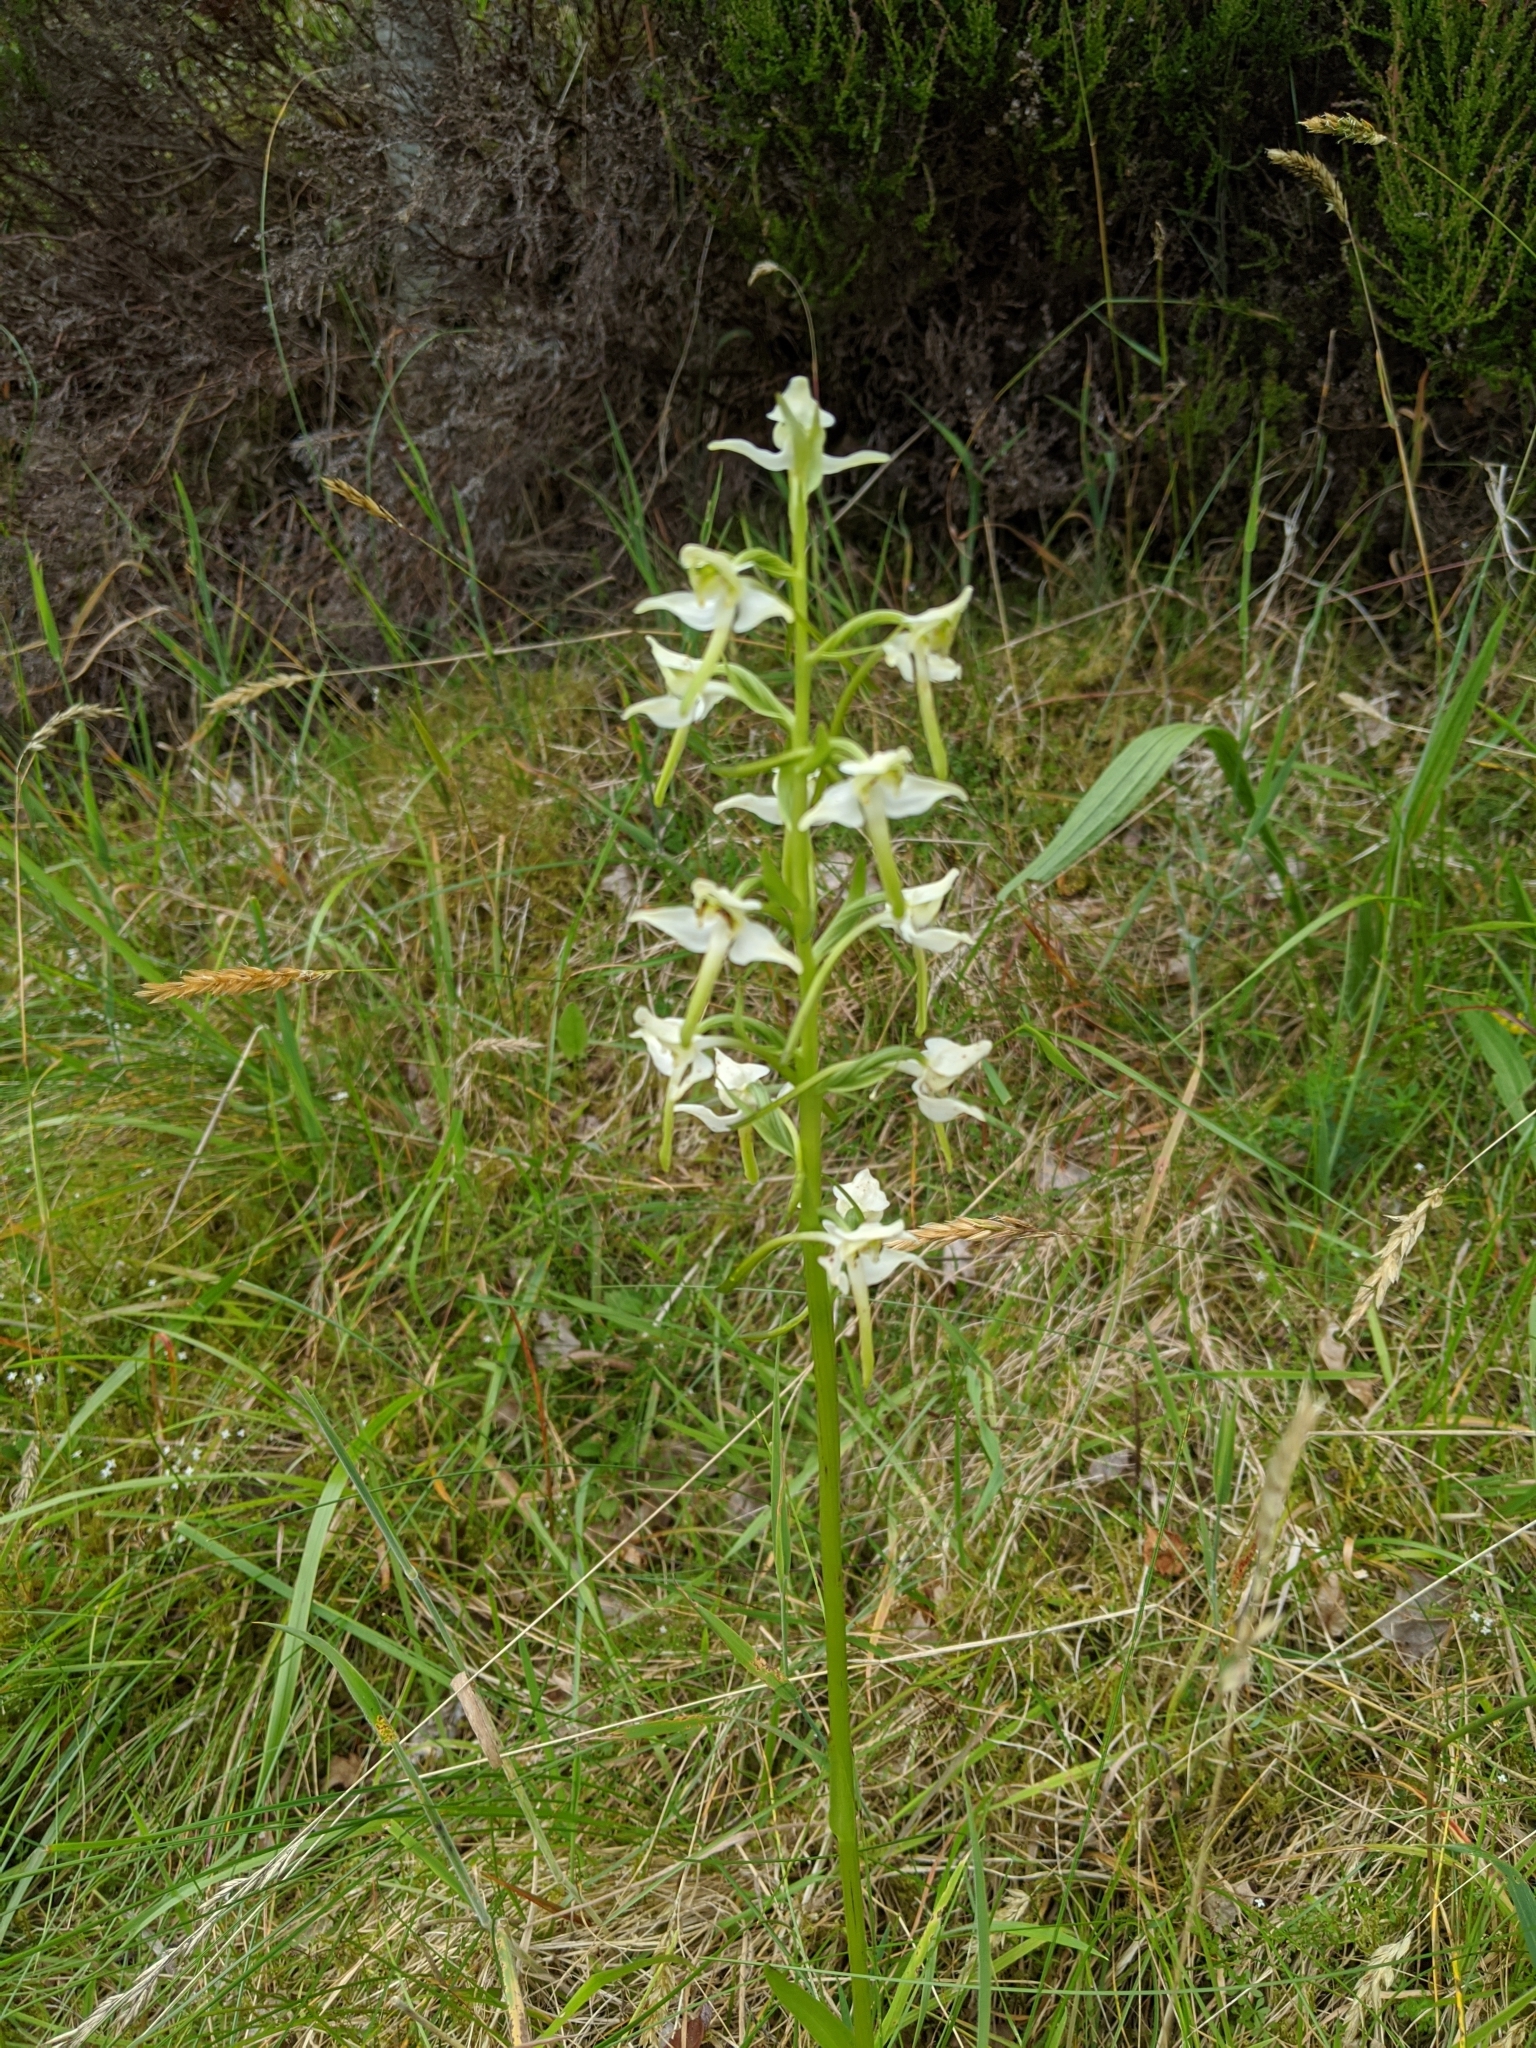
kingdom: Plantae
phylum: Tracheophyta
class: Liliopsida
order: Asparagales
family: Orchidaceae
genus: Platanthera
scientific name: Platanthera chlorantha
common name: Greater butterfly-orchid
